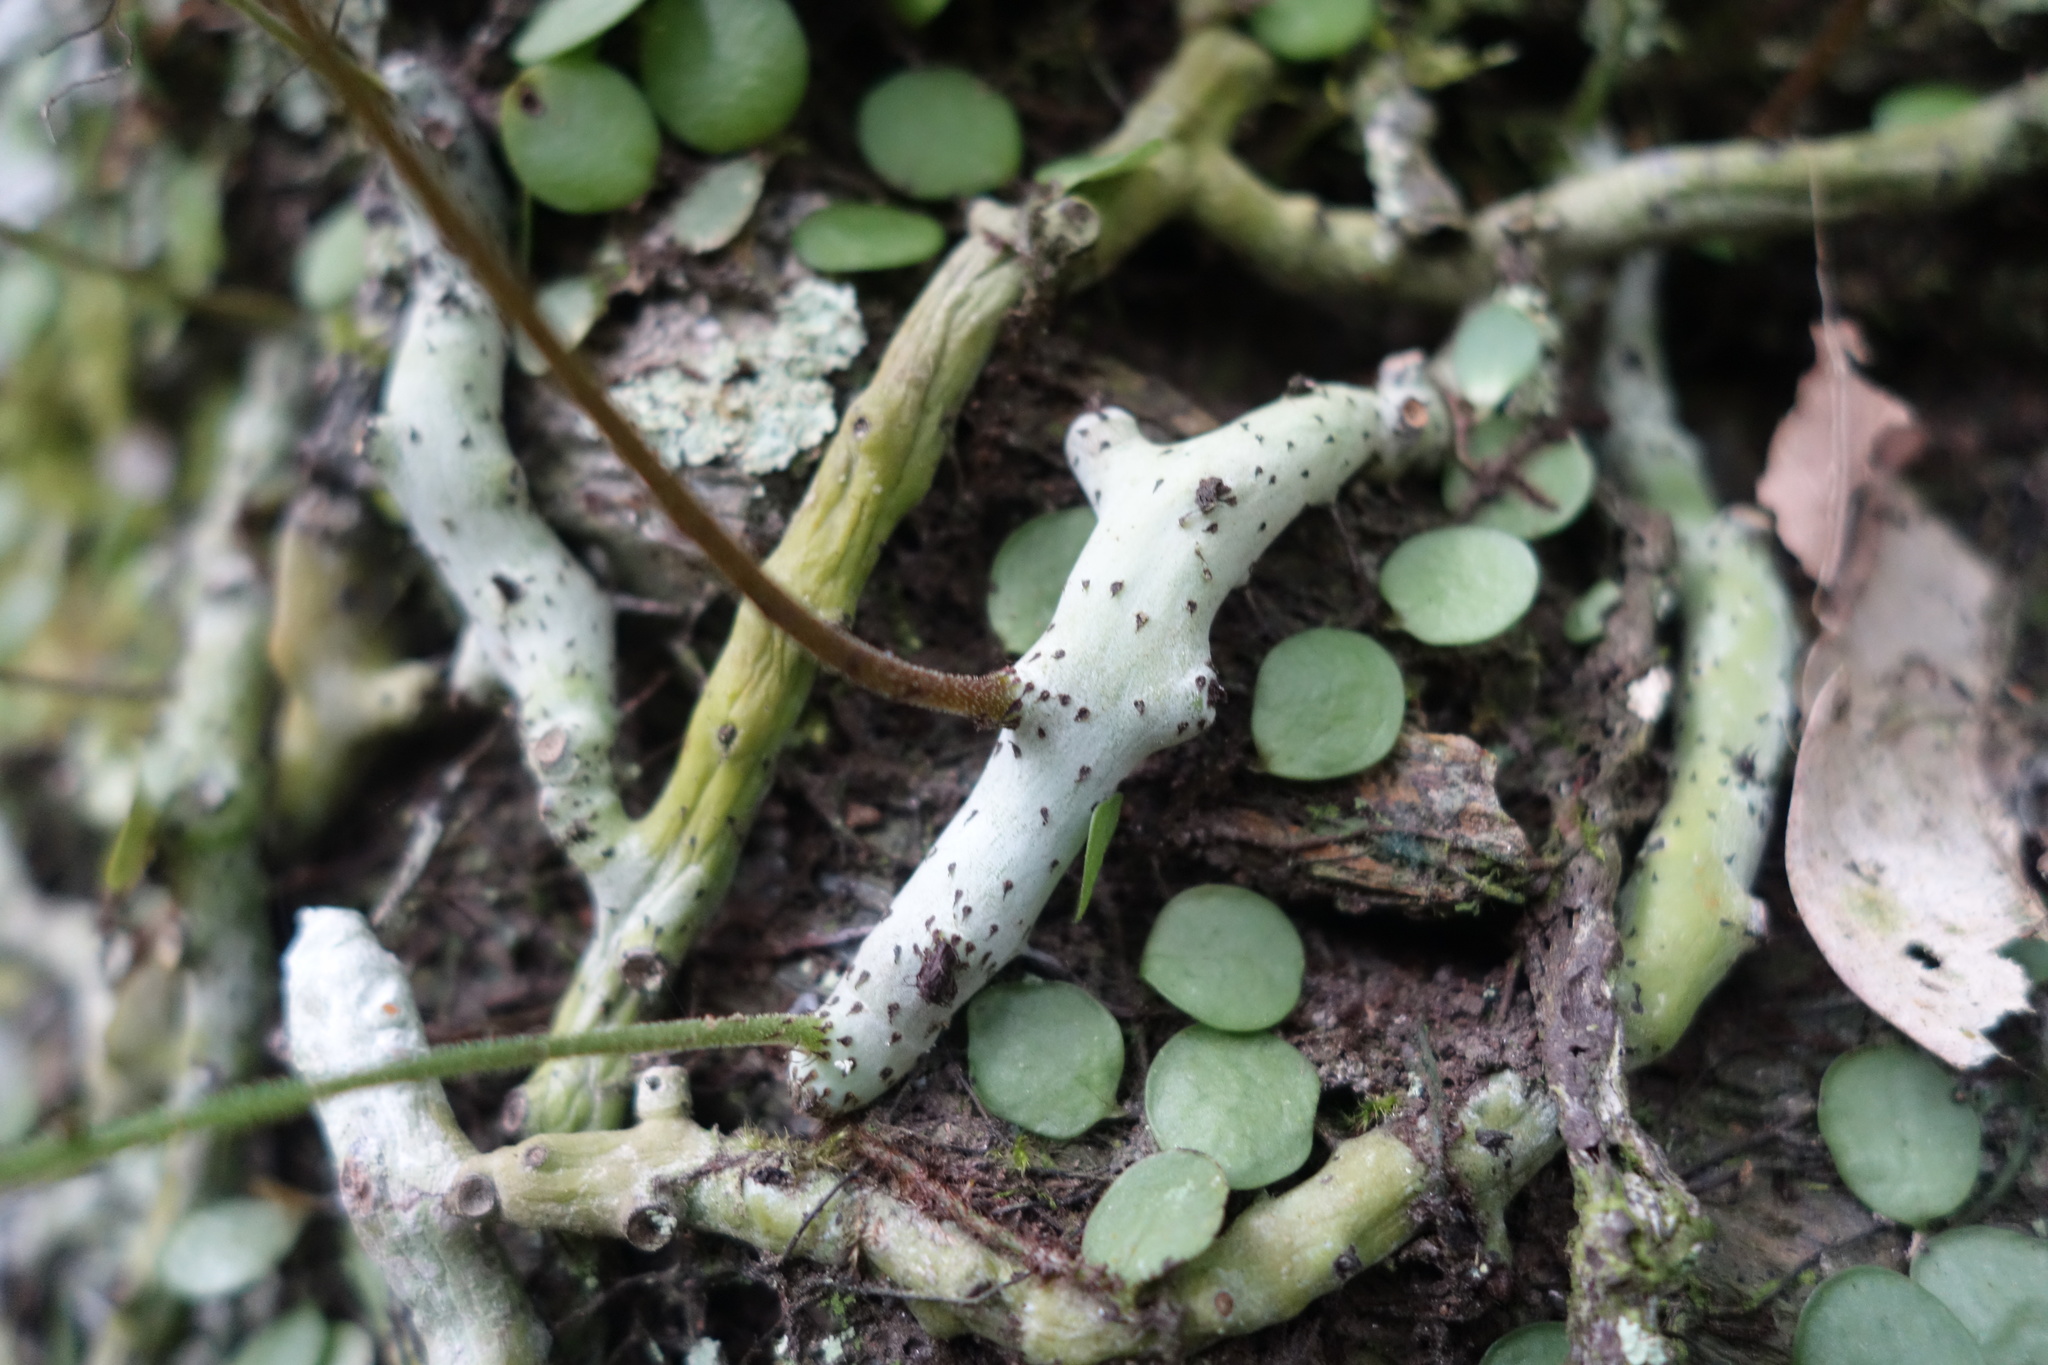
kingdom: Plantae
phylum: Tracheophyta
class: Polypodiopsida
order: Polypodiales
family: Polypodiaceae
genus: Goniophlebium
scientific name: Goniophlebium formosanum
